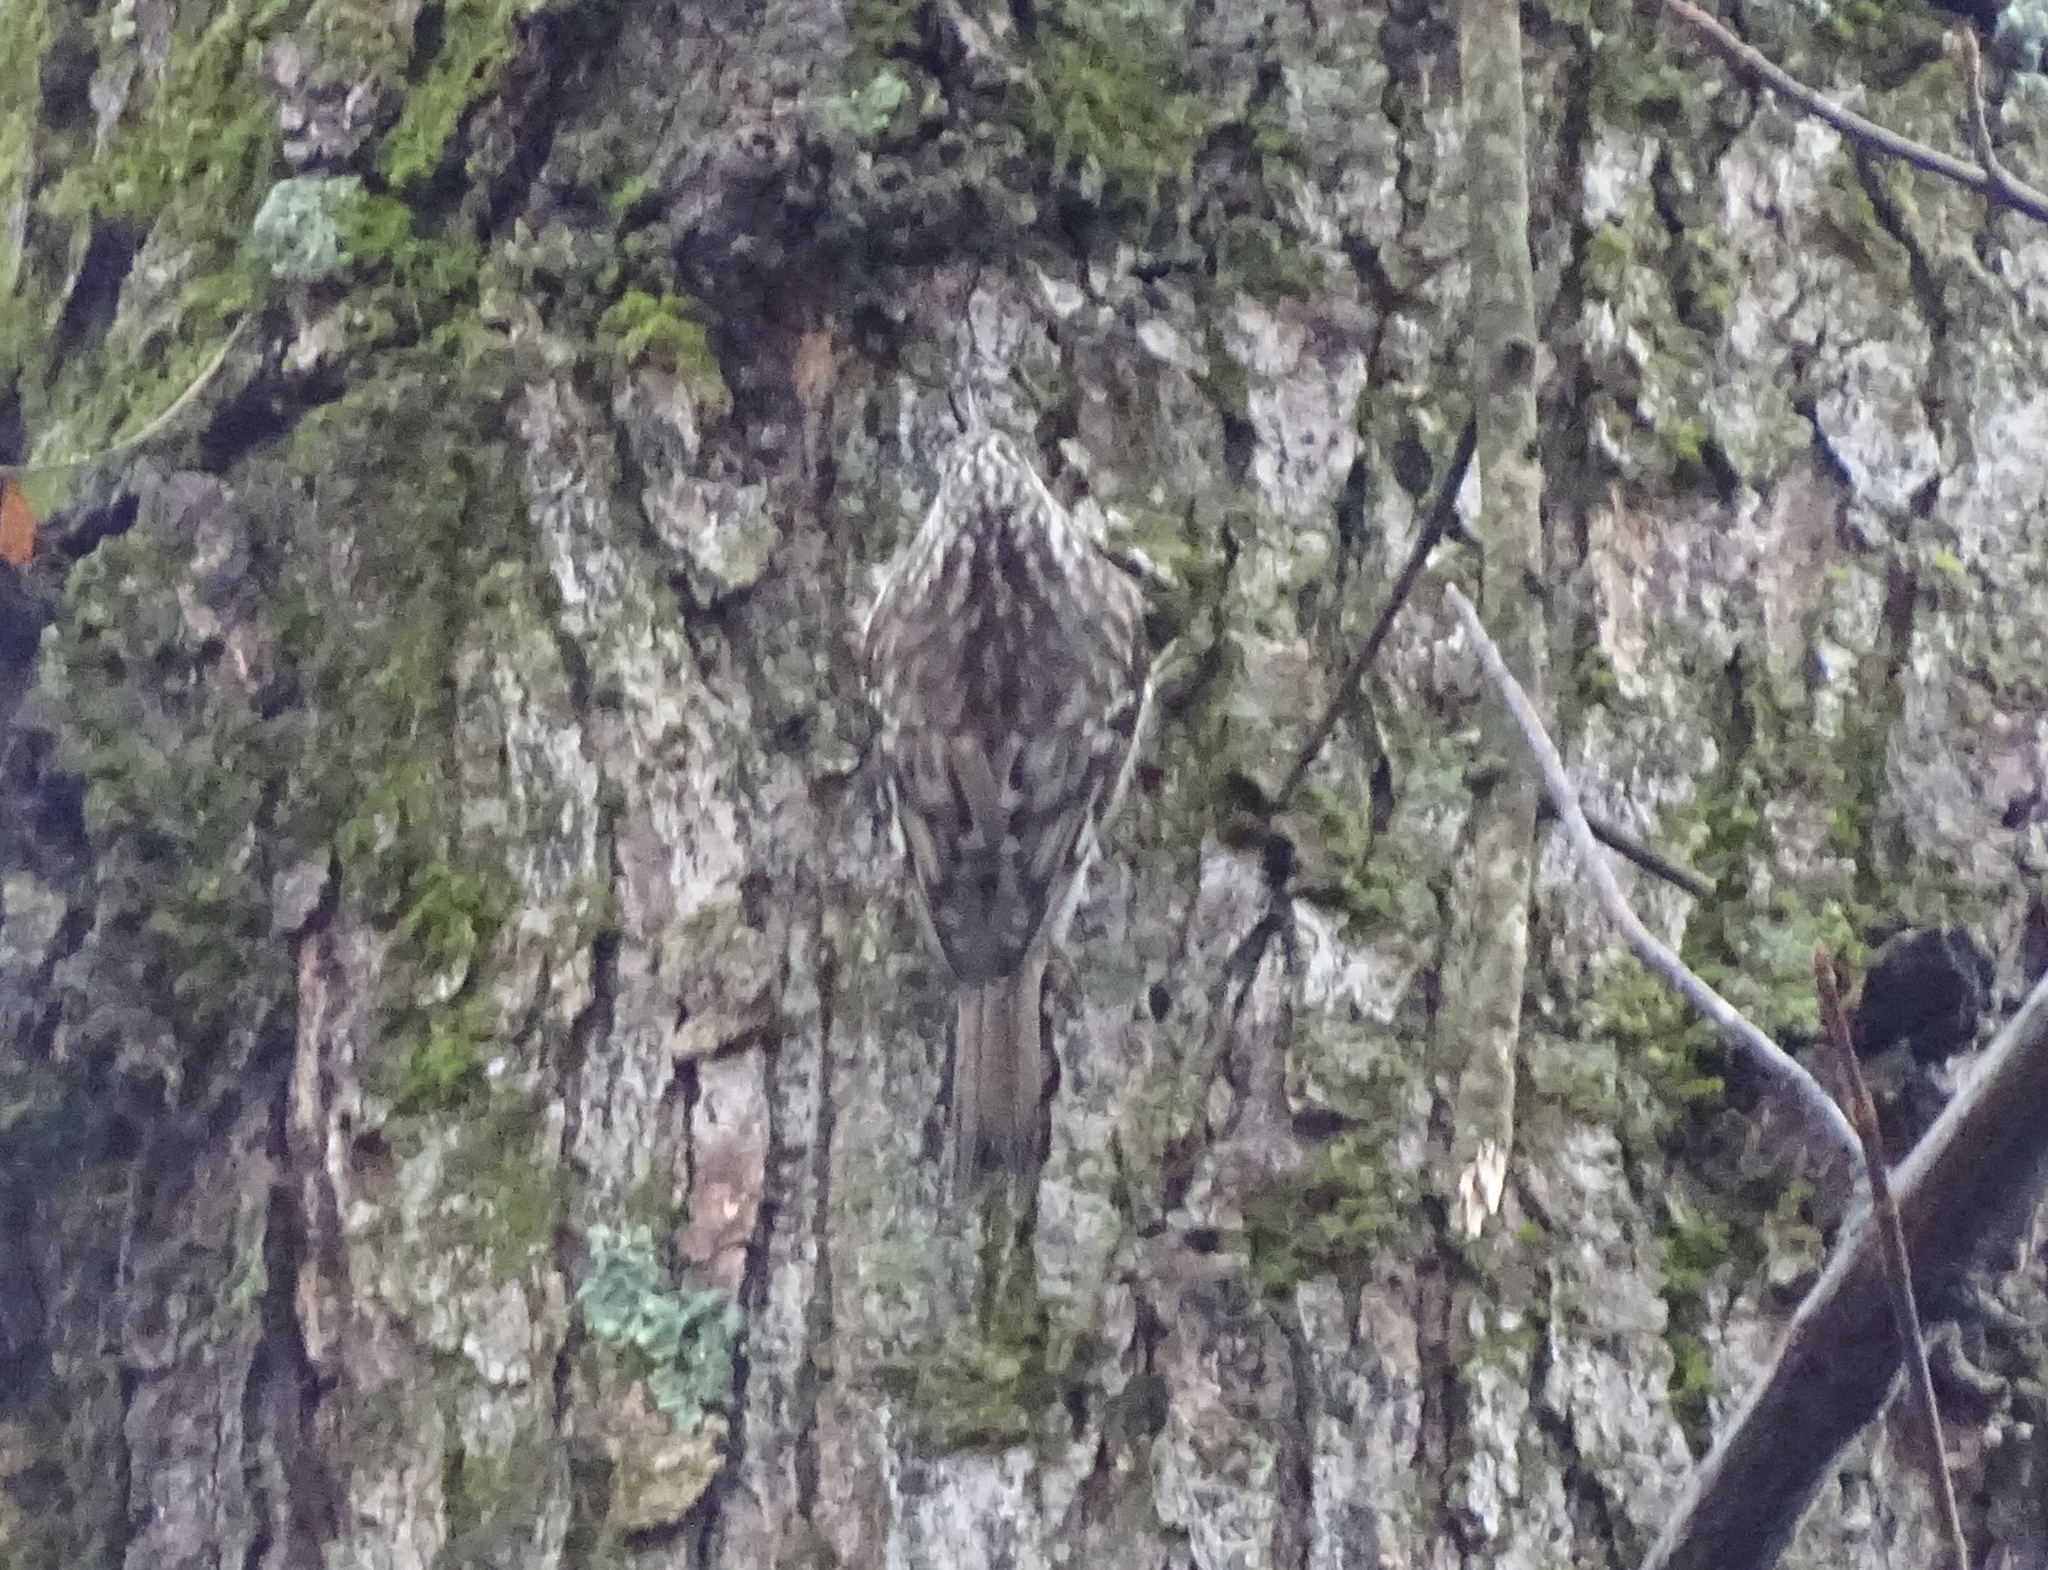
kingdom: Animalia
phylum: Chordata
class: Aves
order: Passeriformes
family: Certhiidae
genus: Certhia
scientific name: Certhia americana
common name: Brown creeper
